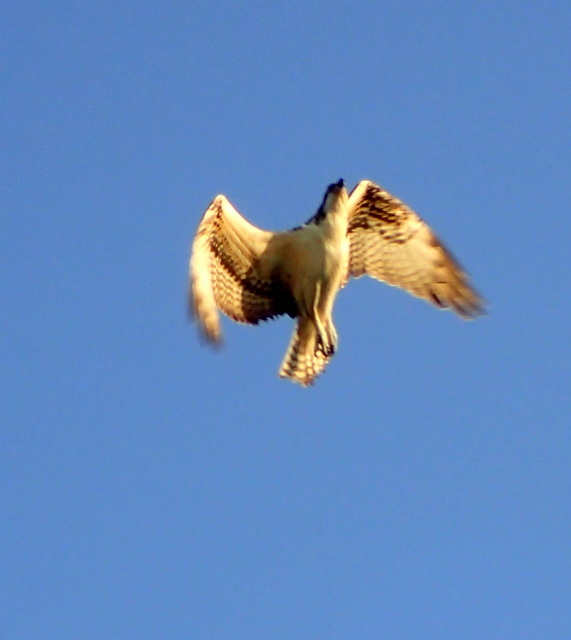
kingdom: Animalia
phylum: Chordata
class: Aves
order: Accipitriformes
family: Pandionidae
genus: Pandion
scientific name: Pandion haliaetus
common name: Osprey
